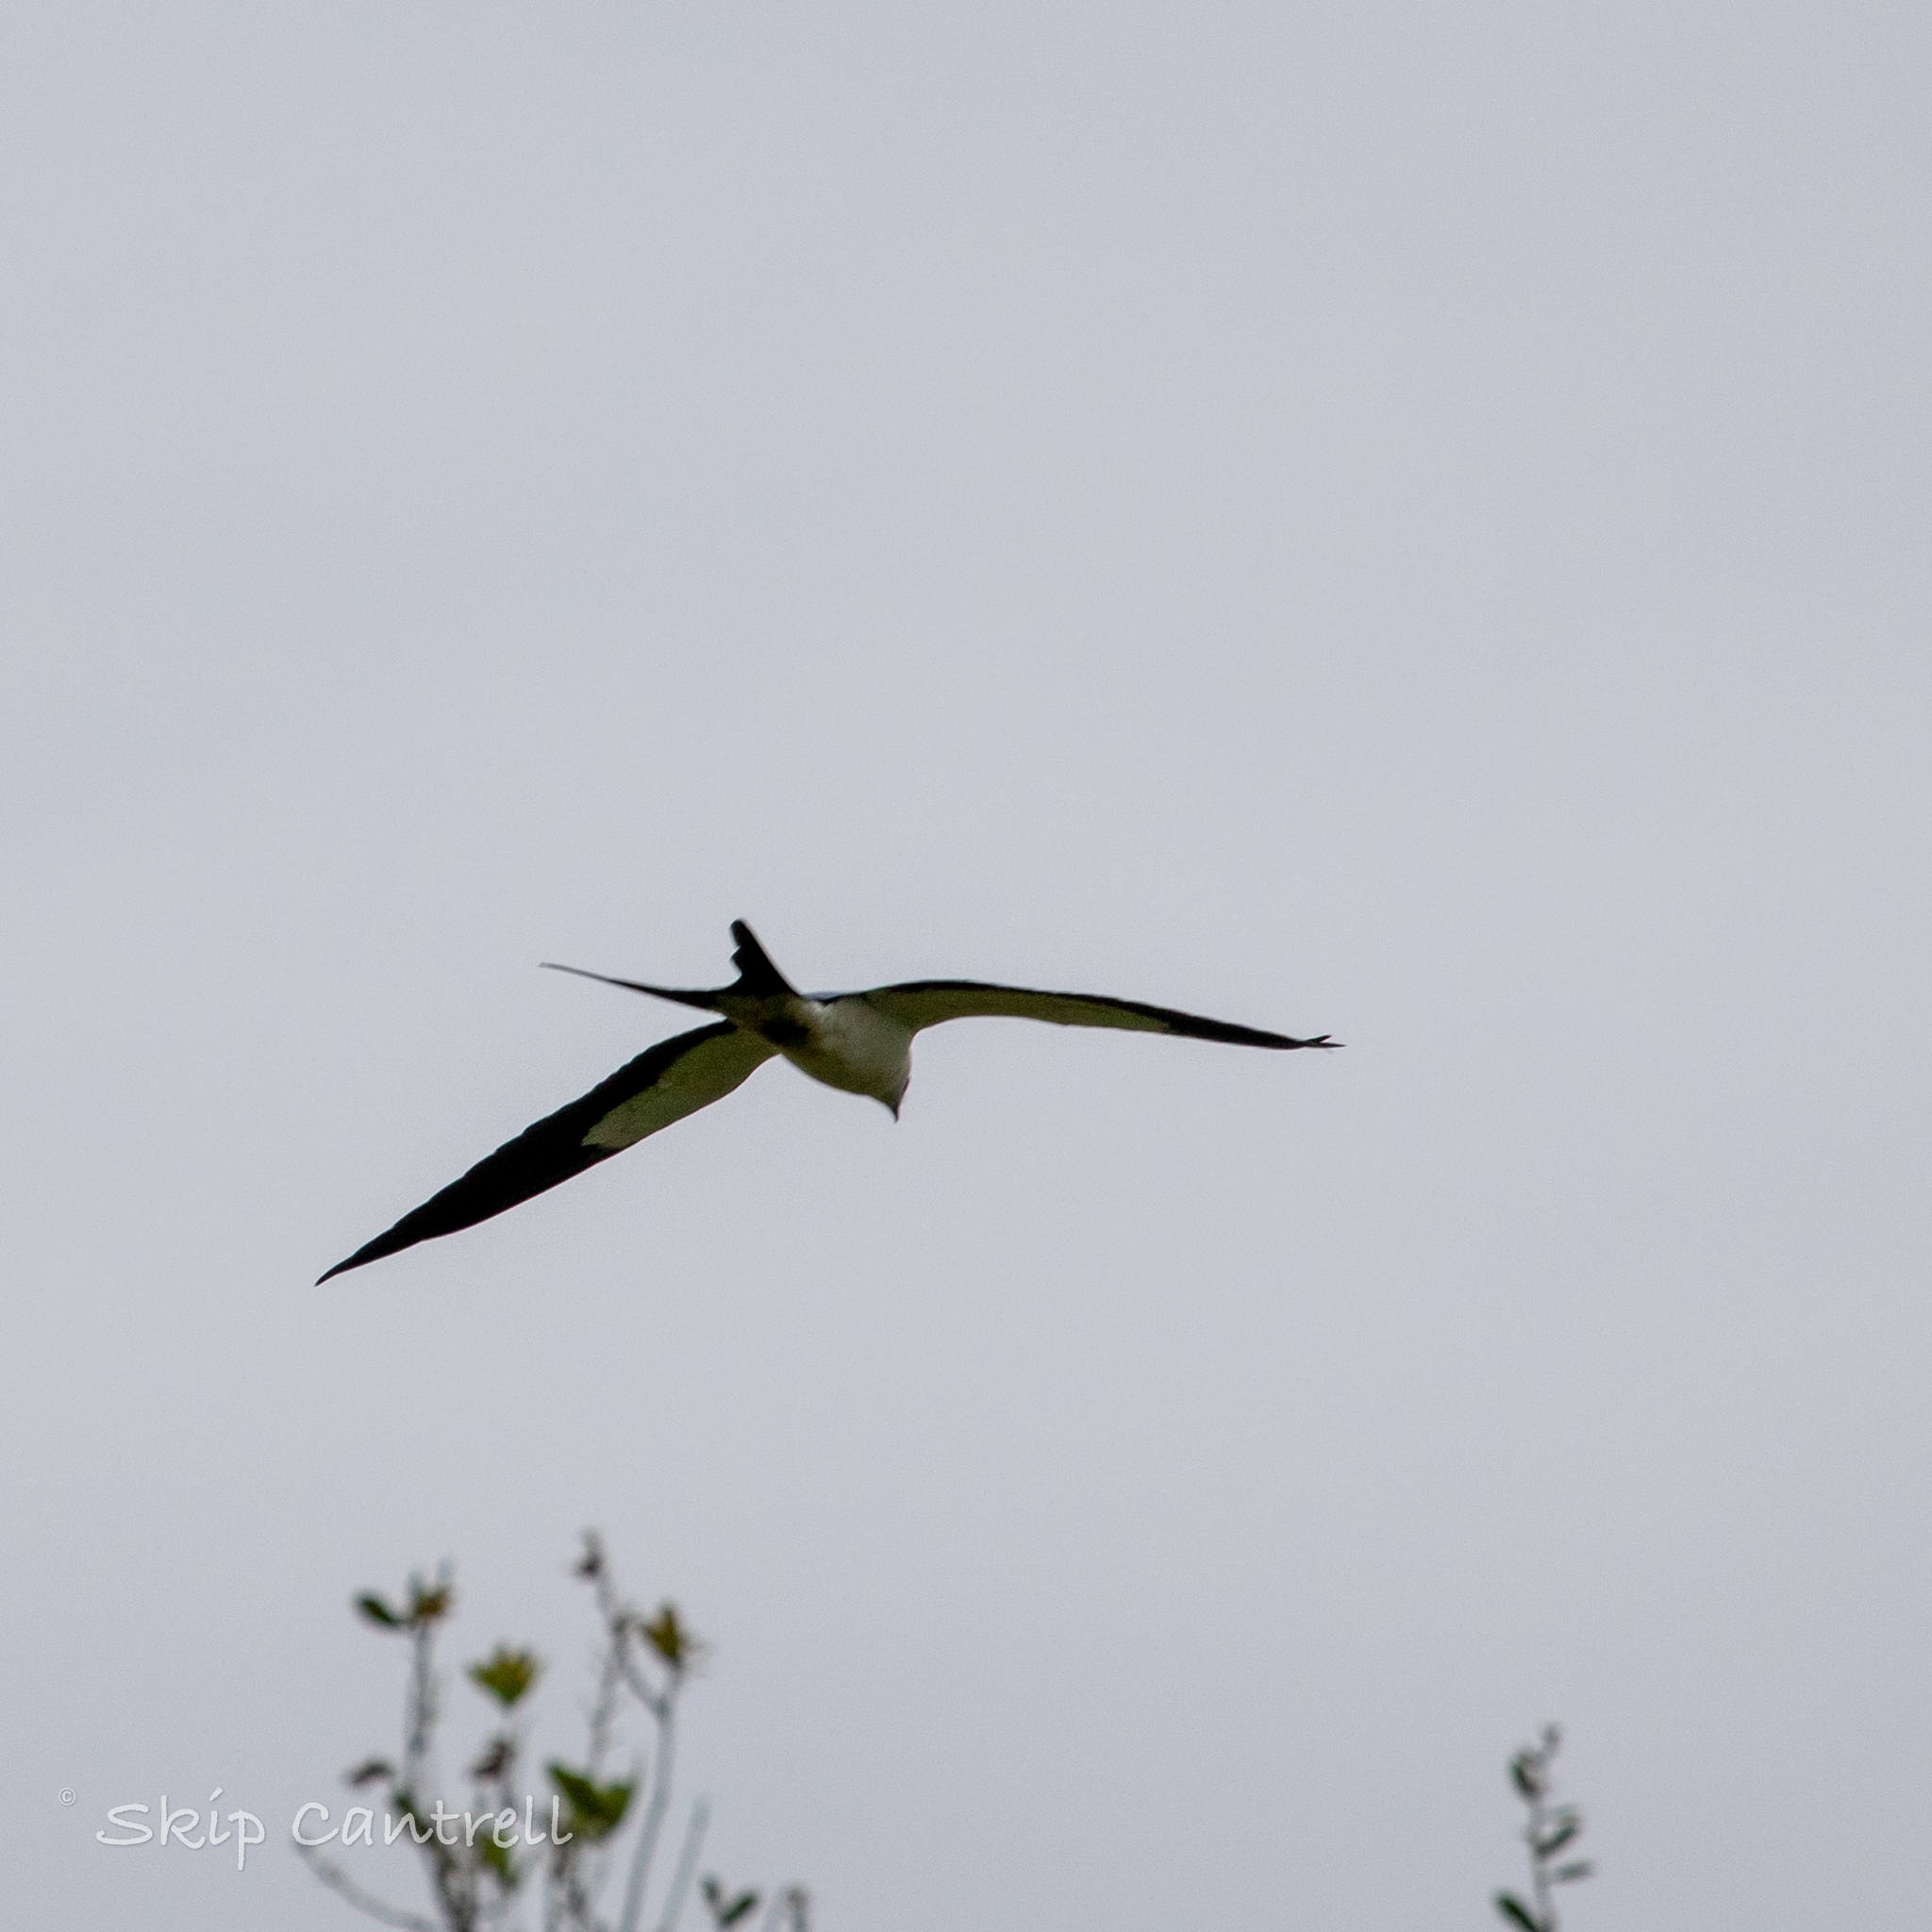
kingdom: Animalia
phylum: Chordata
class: Aves
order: Accipitriformes
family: Accipitridae
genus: Elanoides
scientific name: Elanoides forficatus
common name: Swallow-tailed kite
